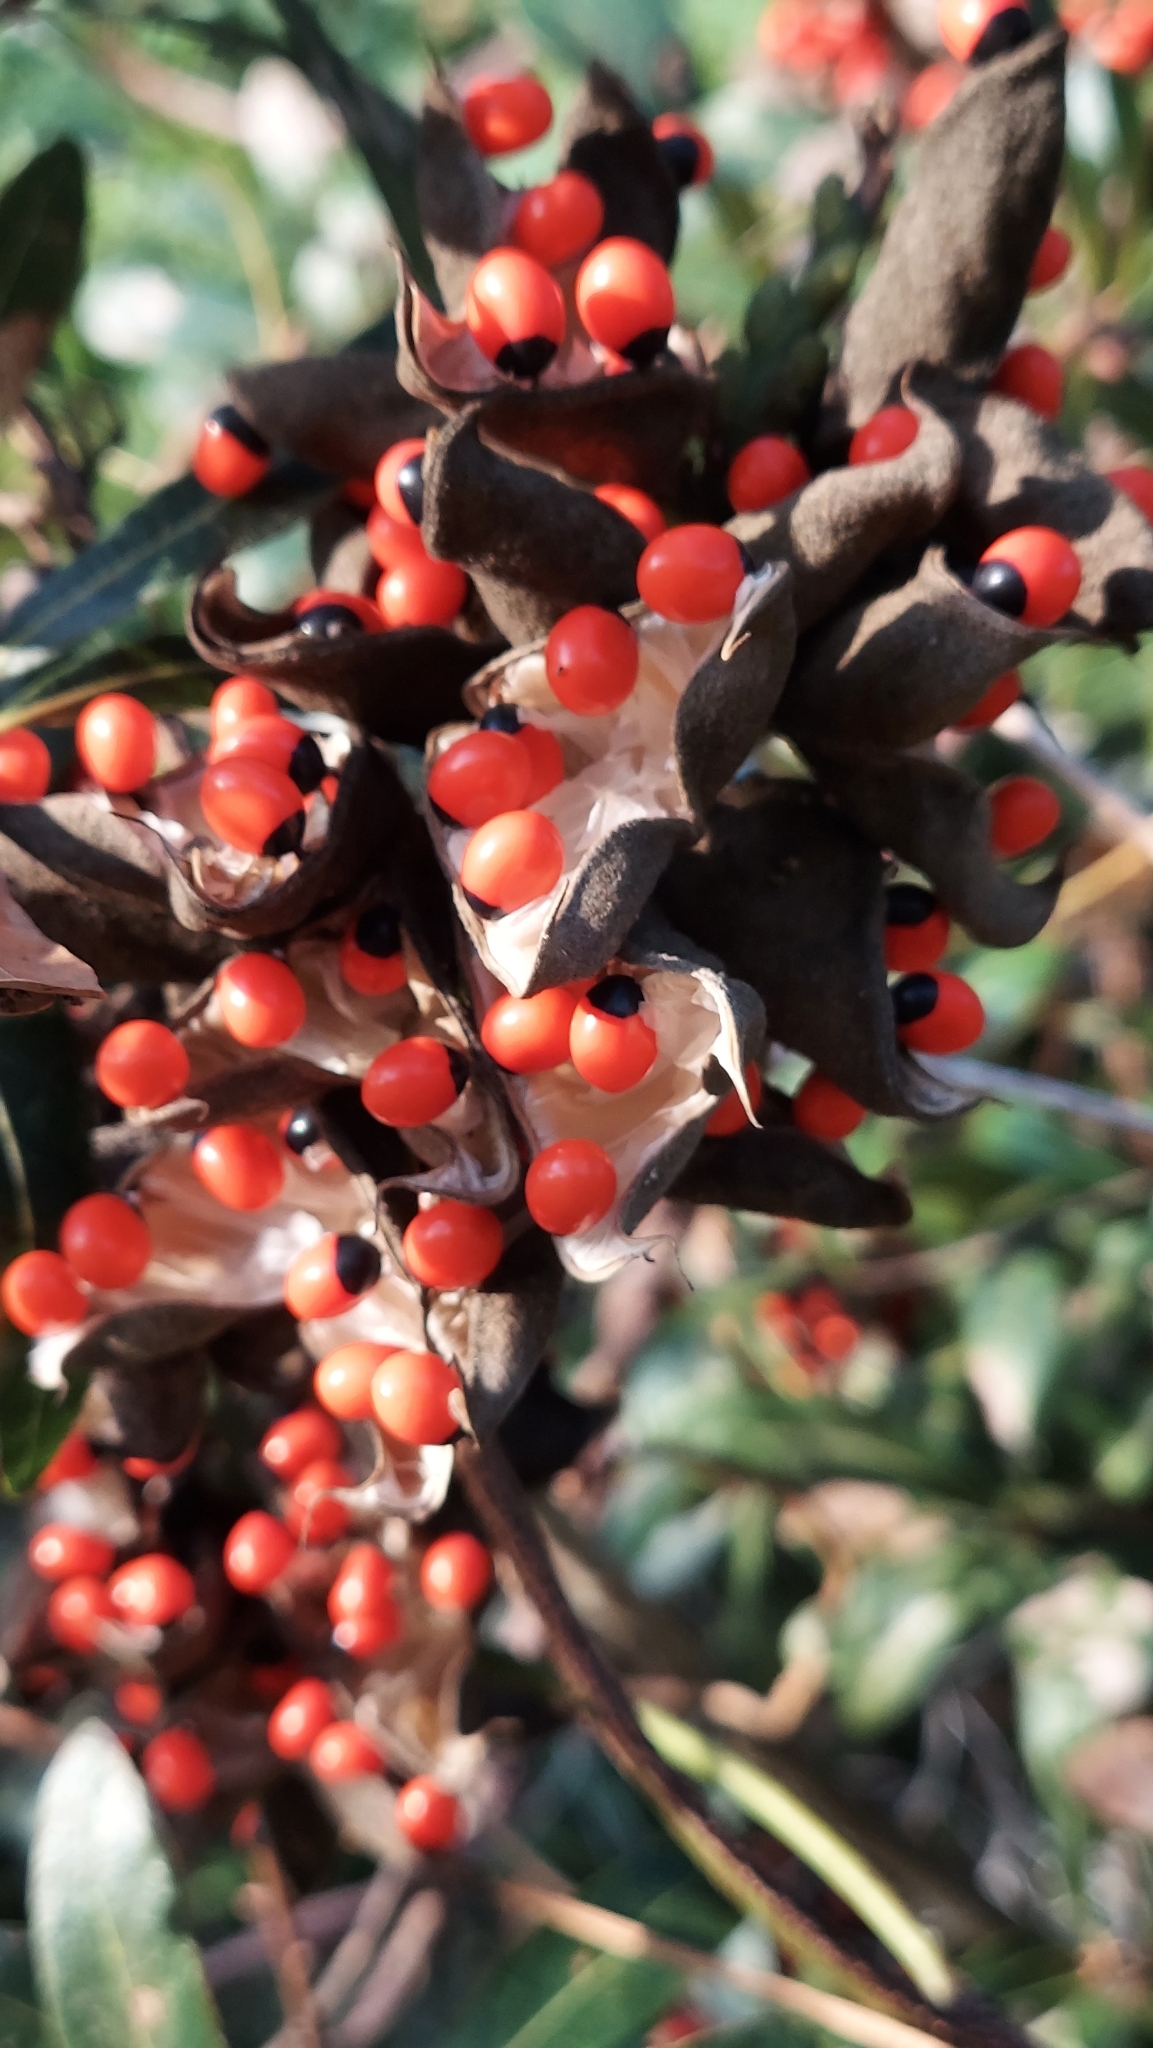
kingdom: Plantae
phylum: Tracheophyta
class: Magnoliopsida
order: Fabales
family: Fabaceae
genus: Abrus
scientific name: Abrus precatorius
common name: Rosarypea
